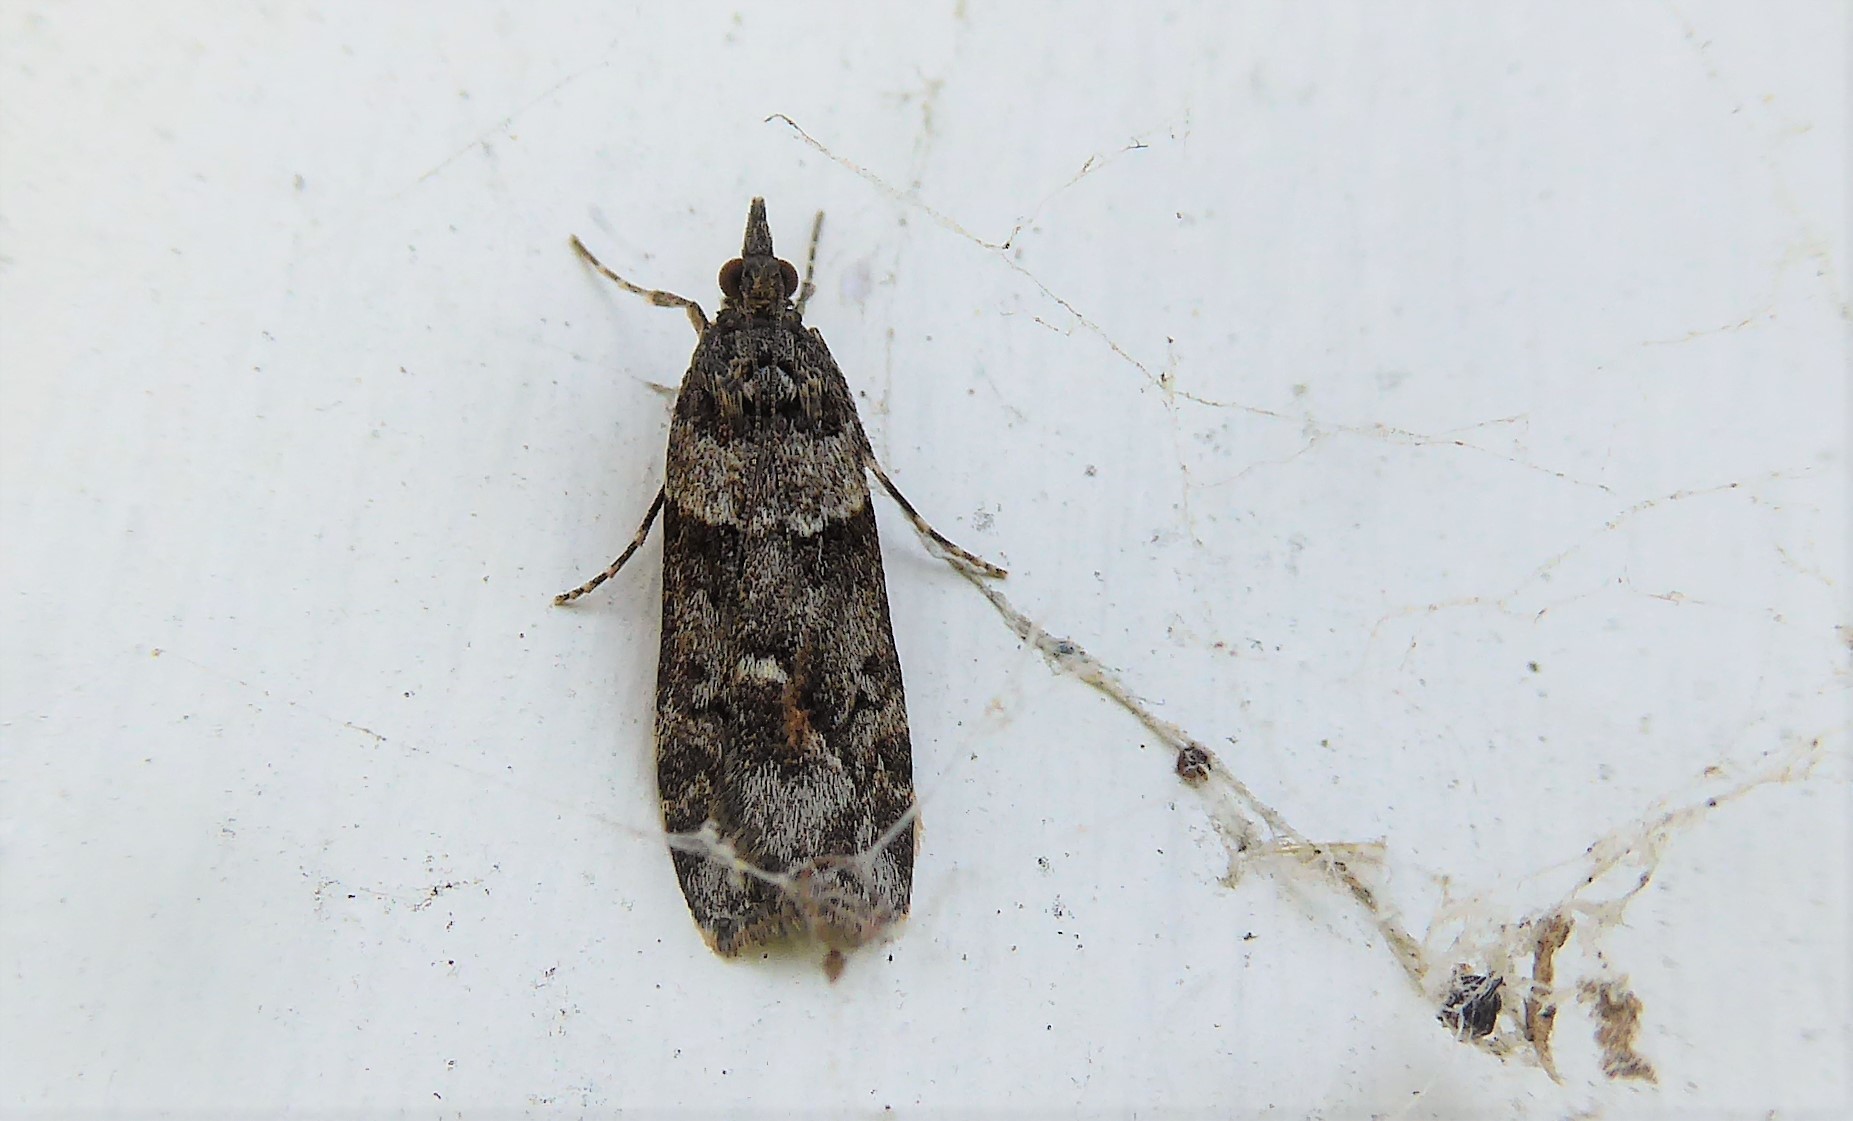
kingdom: Animalia
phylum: Arthropoda
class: Insecta
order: Lepidoptera
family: Crambidae
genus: Eudonia
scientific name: Eudonia submarginalis
